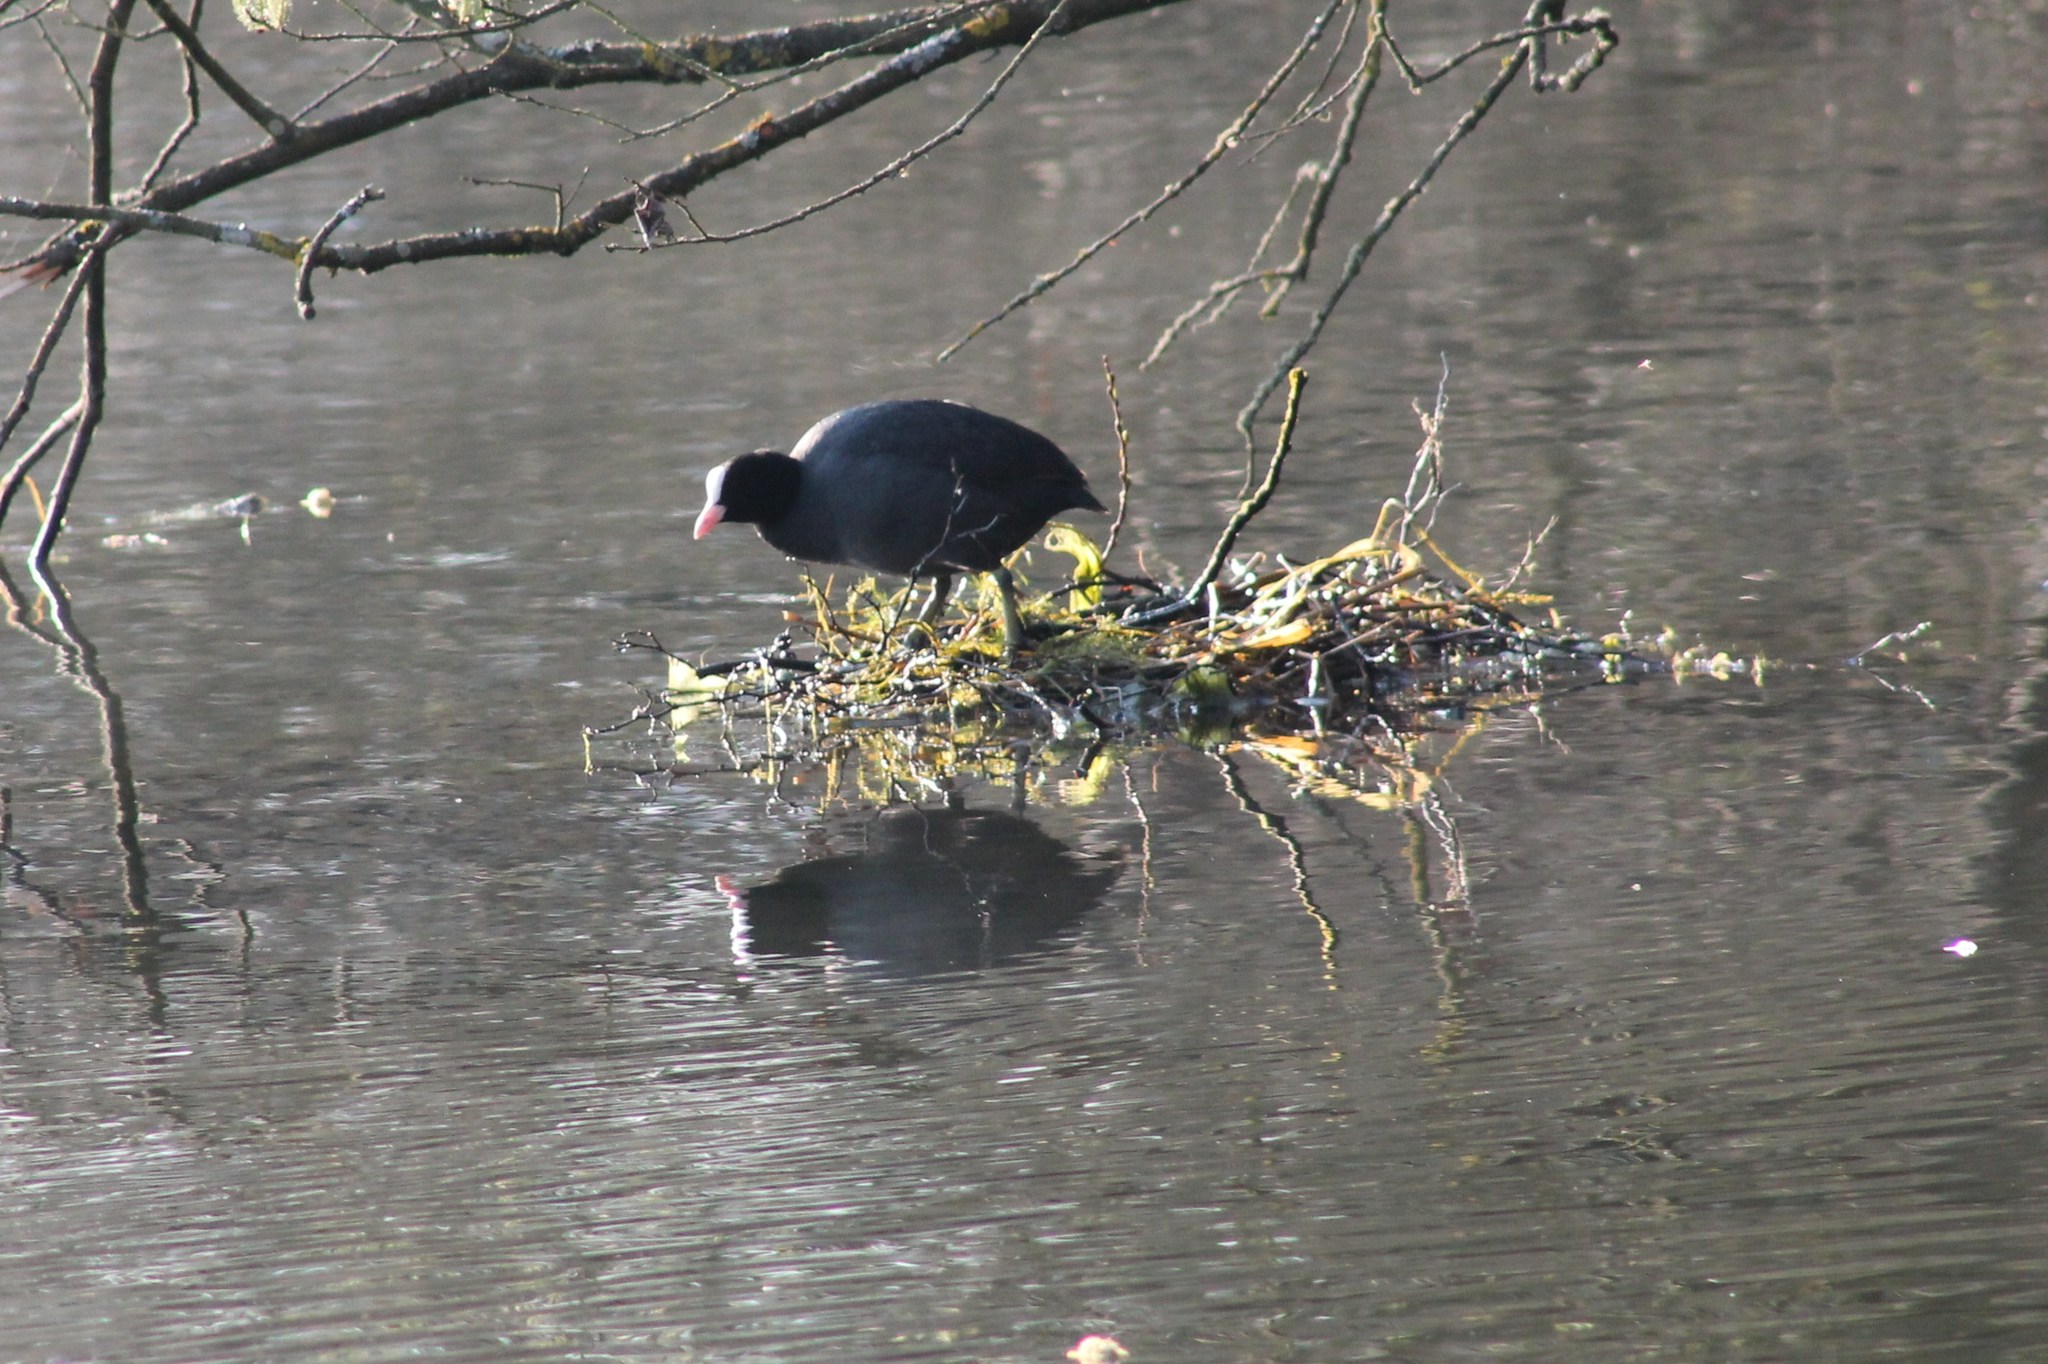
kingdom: Animalia
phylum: Chordata
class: Aves
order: Gruiformes
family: Rallidae
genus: Fulica
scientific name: Fulica atra
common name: Eurasian coot
